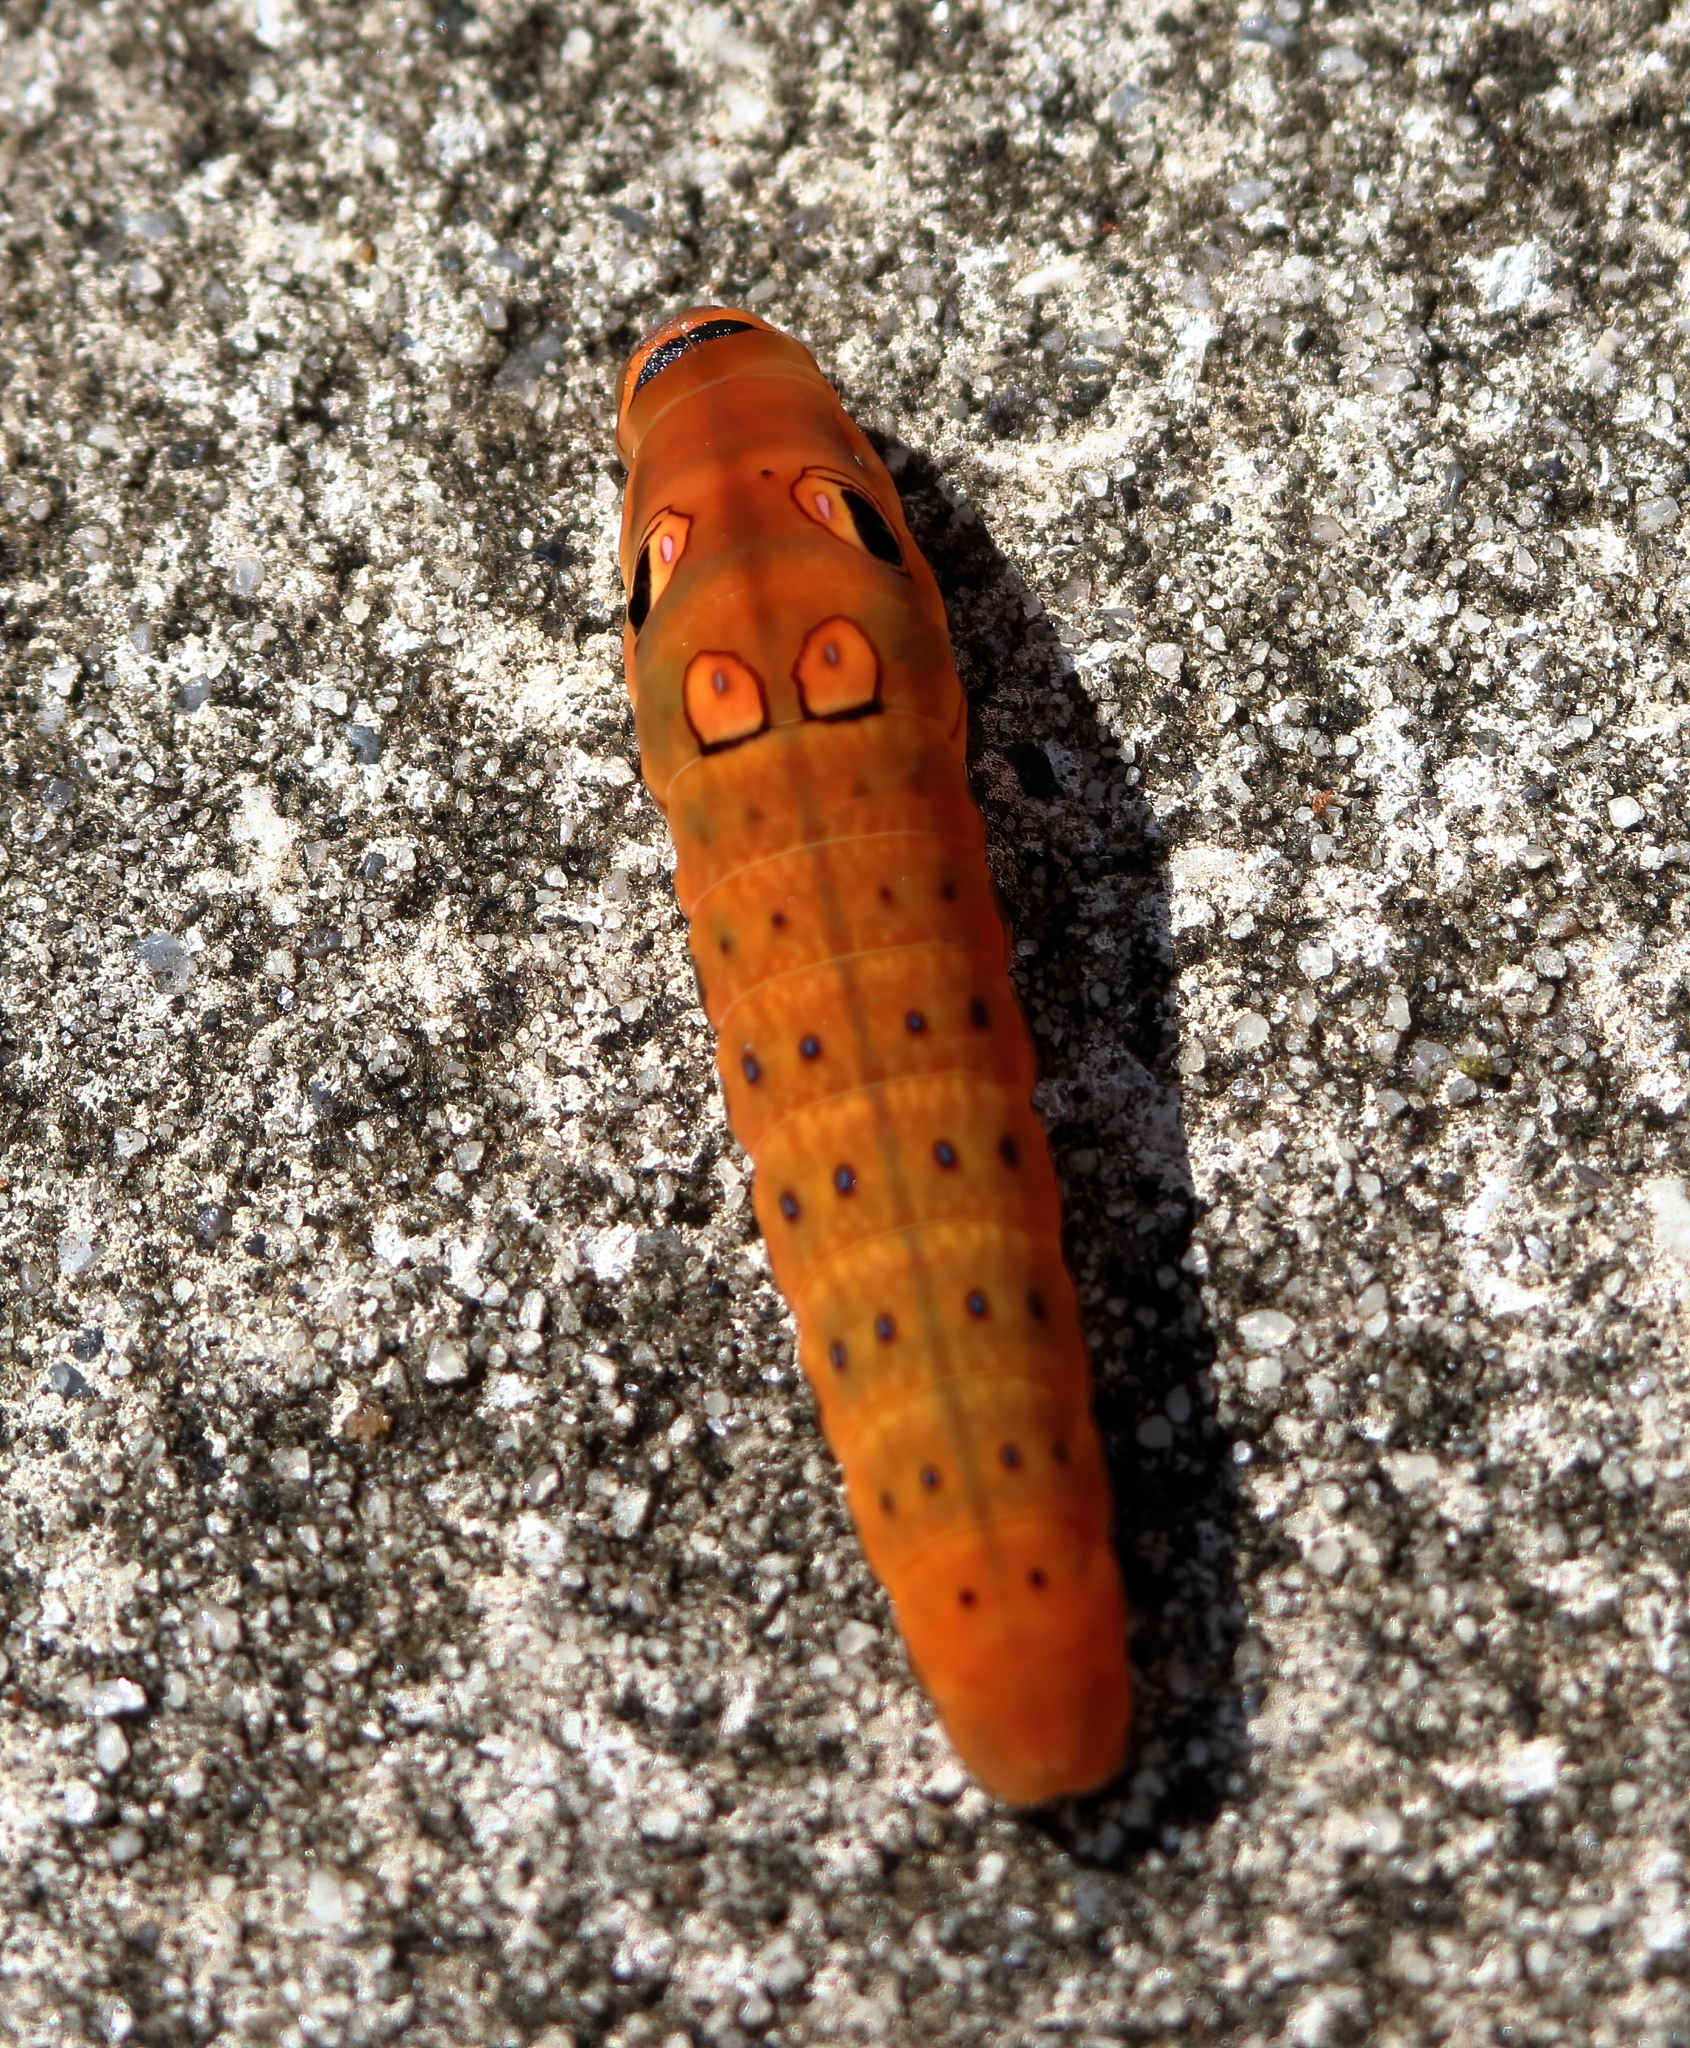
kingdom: Animalia
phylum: Arthropoda
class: Insecta
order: Lepidoptera
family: Papilionidae
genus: Papilio
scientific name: Papilio troilus
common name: Spicebush swallowtail
